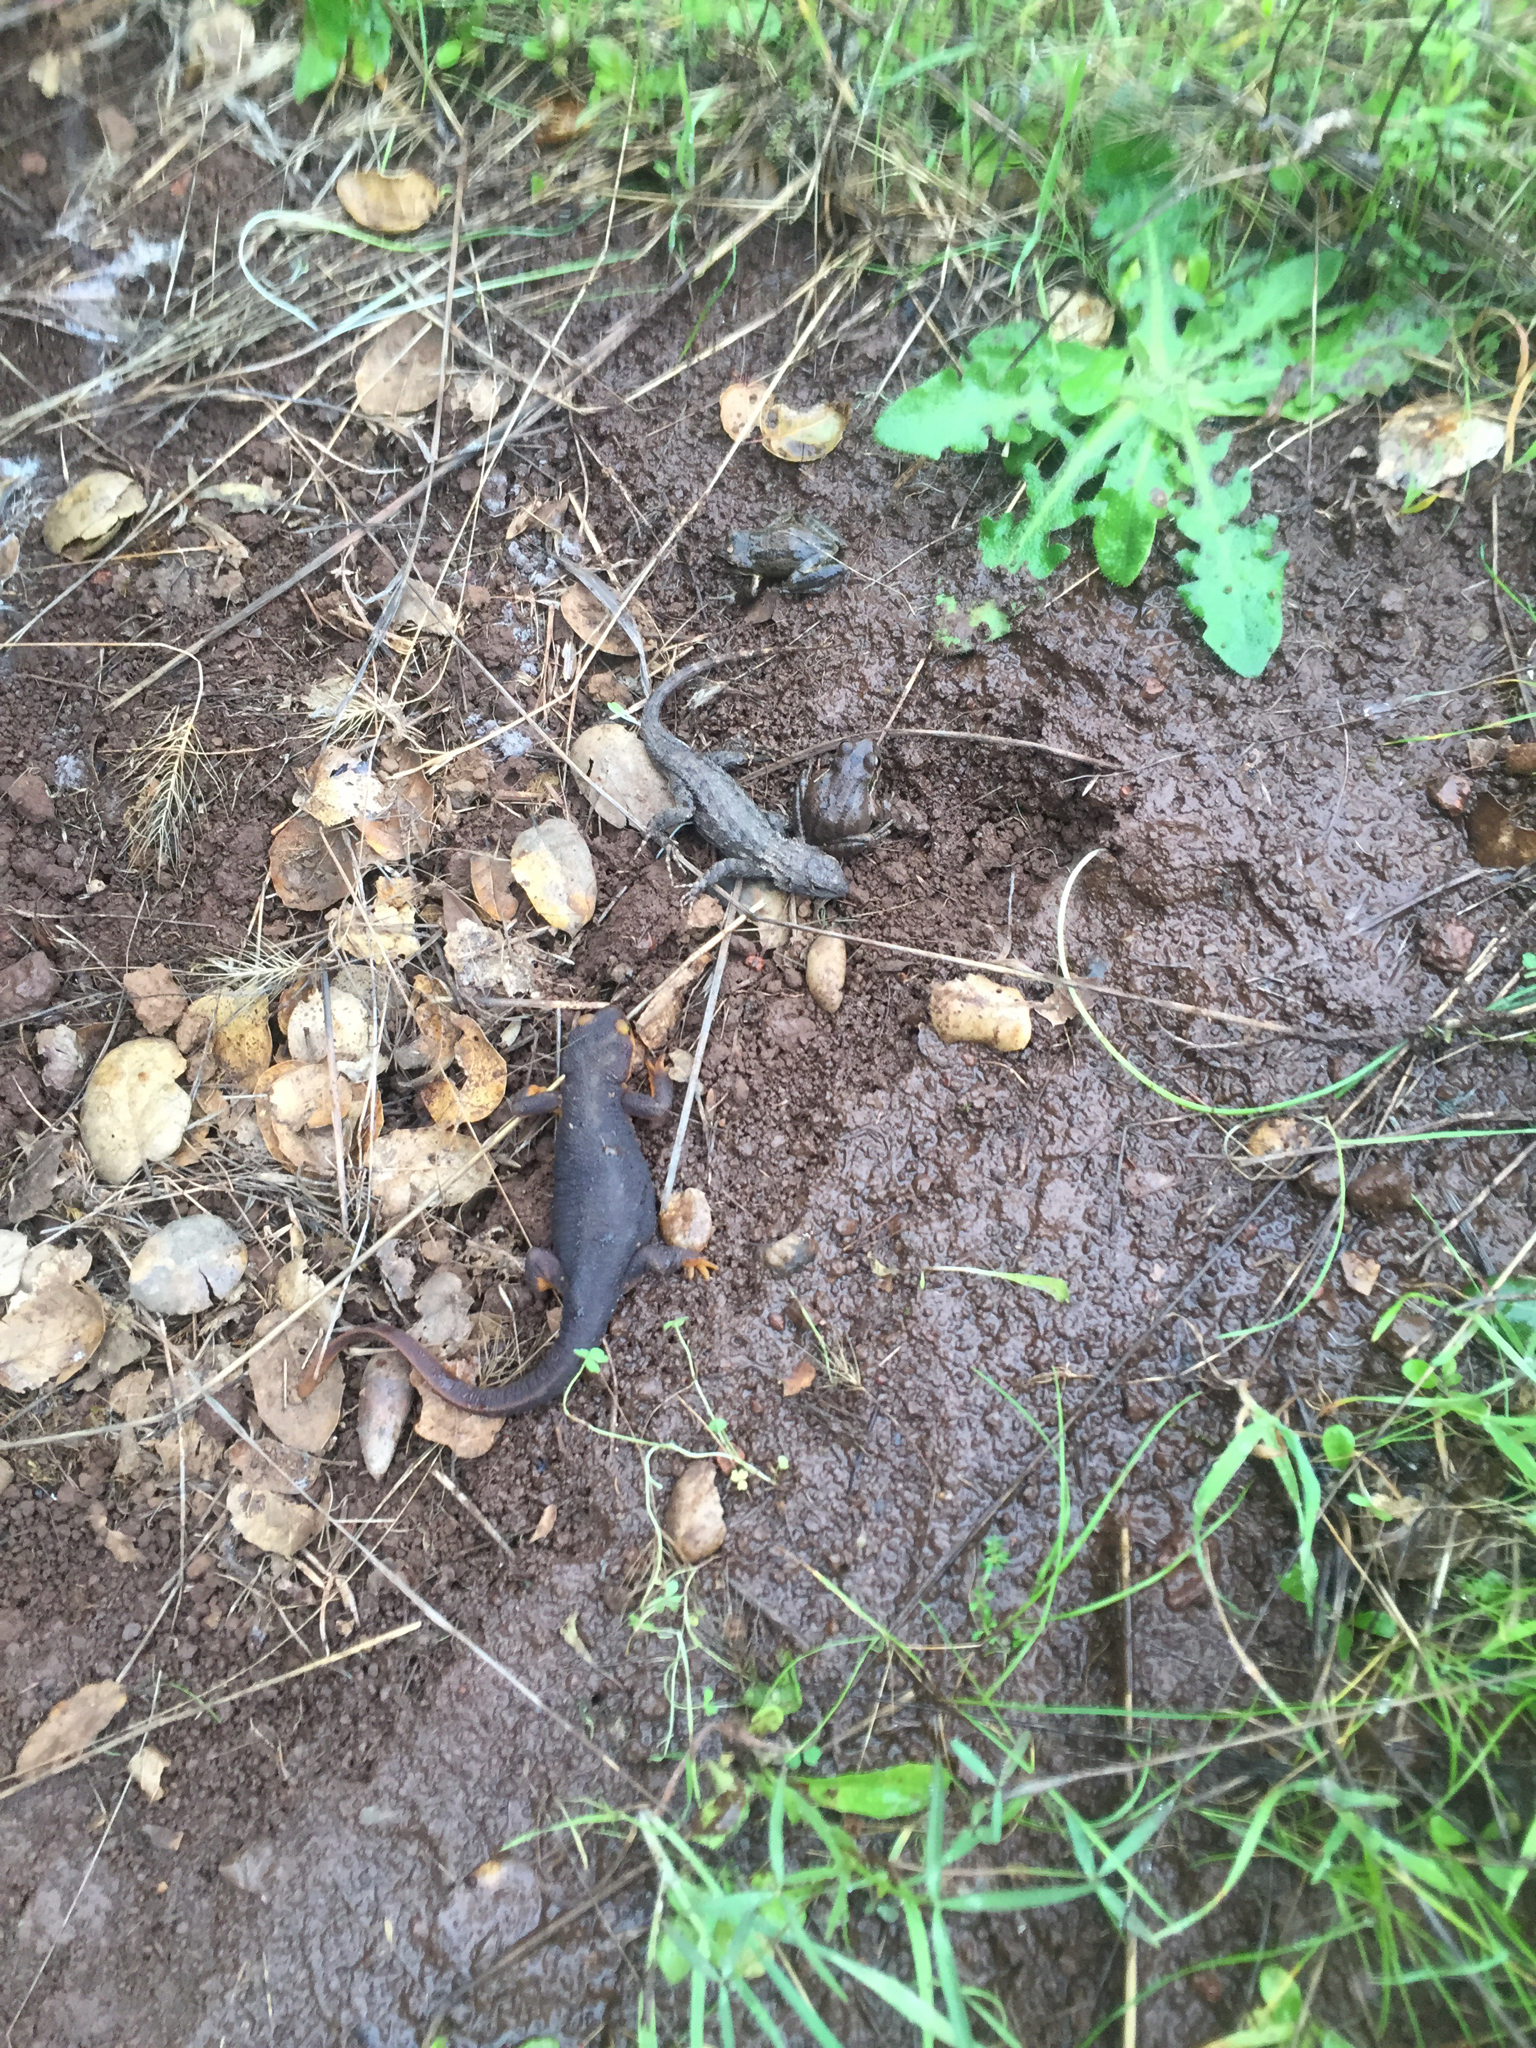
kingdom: Animalia
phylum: Chordata
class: Squamata
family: Phrynosomatidae
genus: Sceloporus
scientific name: Sceloporus occidentalis
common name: Western fence lizard
